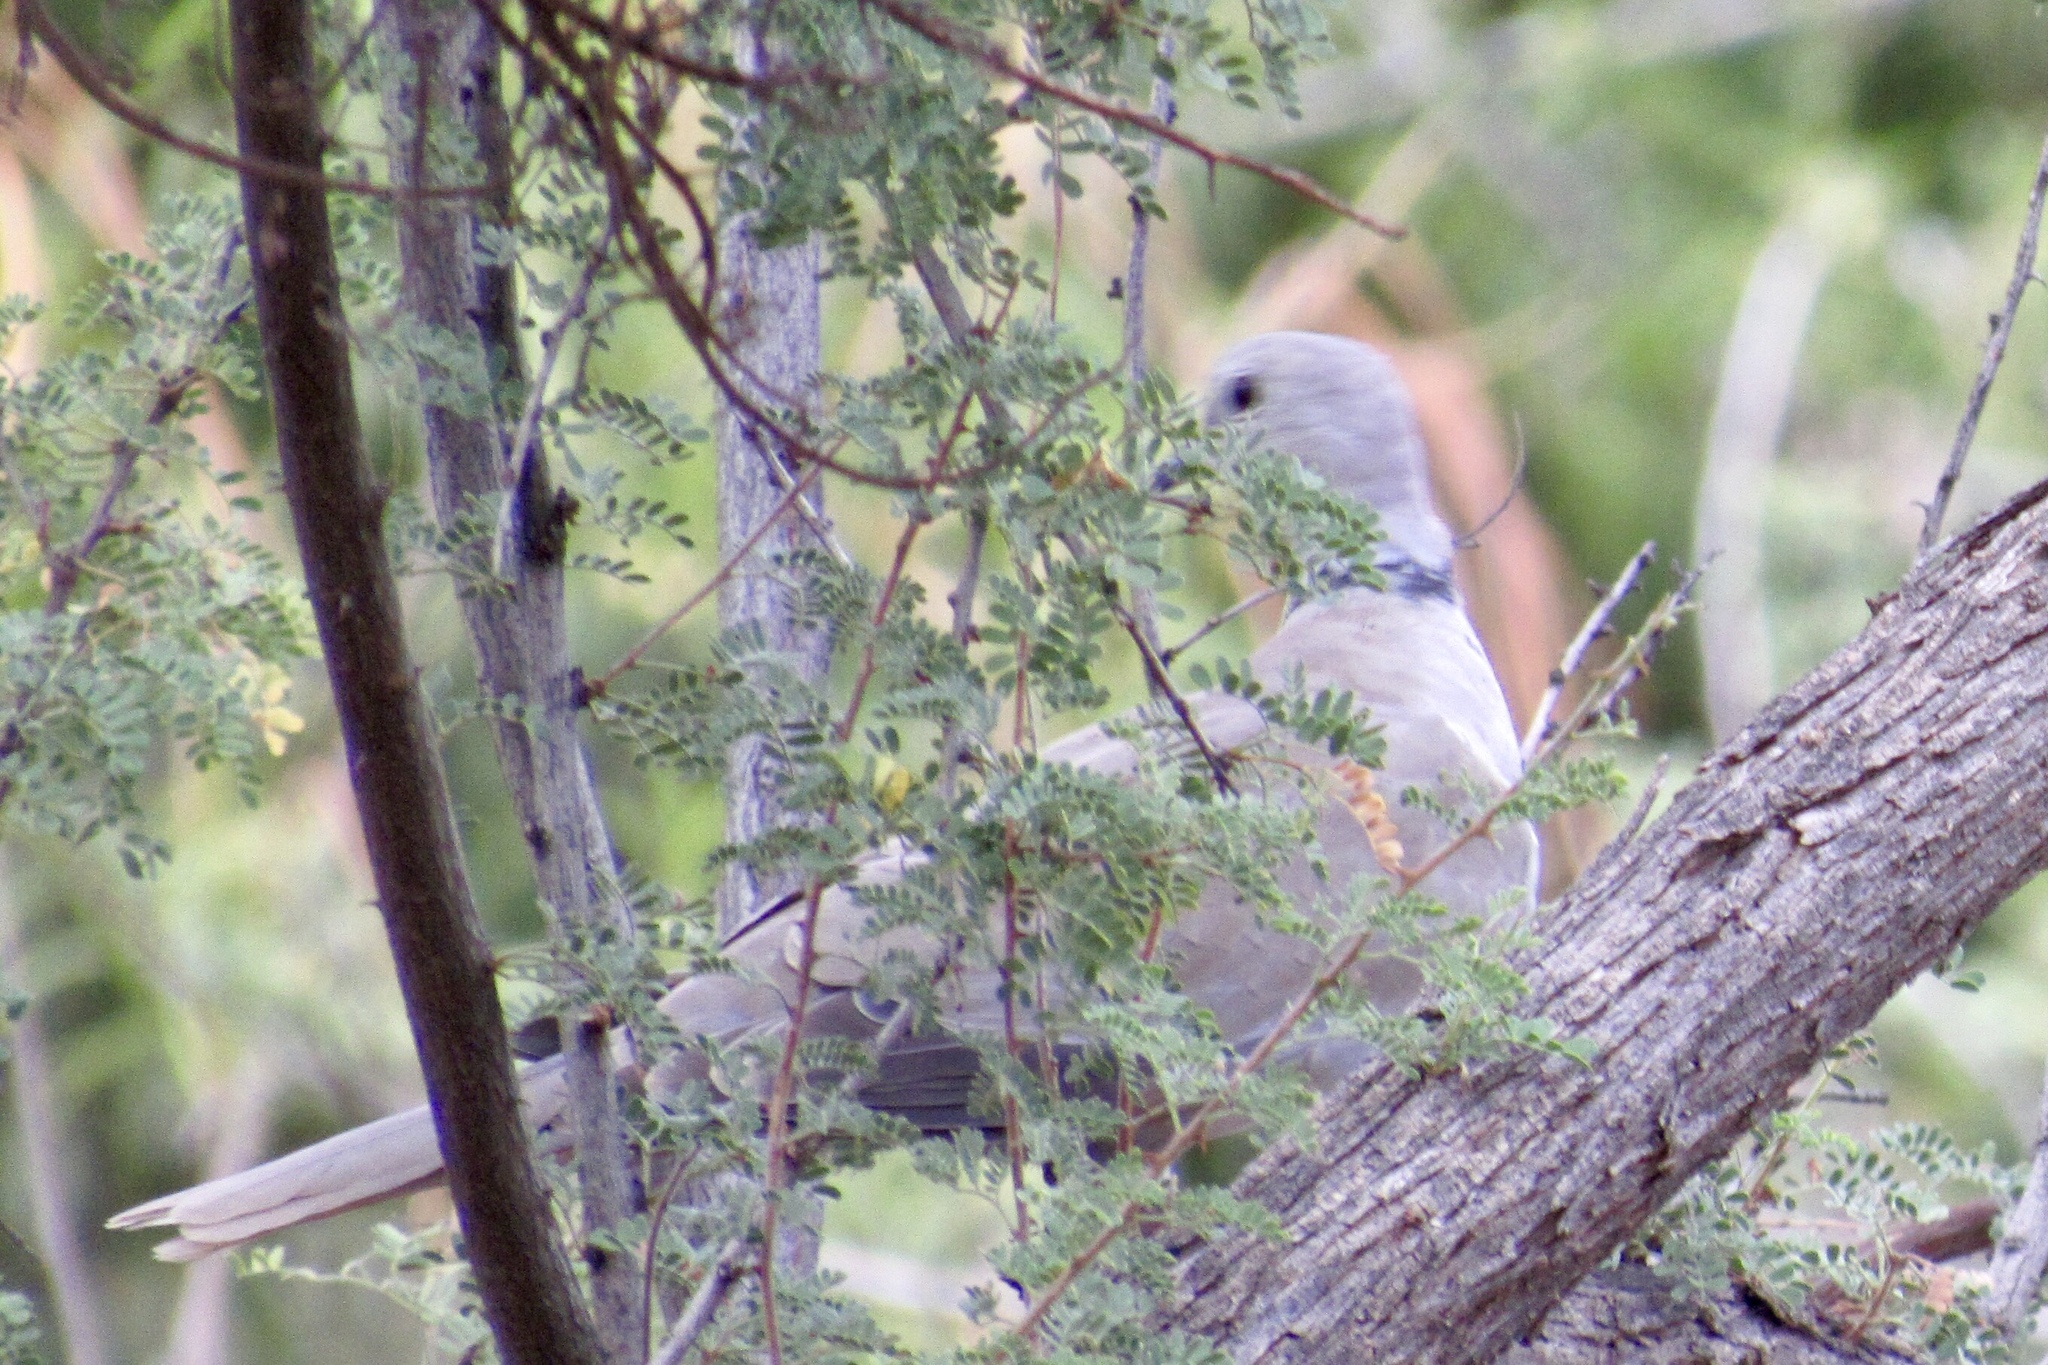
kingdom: Animalia
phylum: Chordata
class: Aves
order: Columbiformes
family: Columbidae
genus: Streptopelia
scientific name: Streptopelia decaocto
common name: Eurasian collared dove
